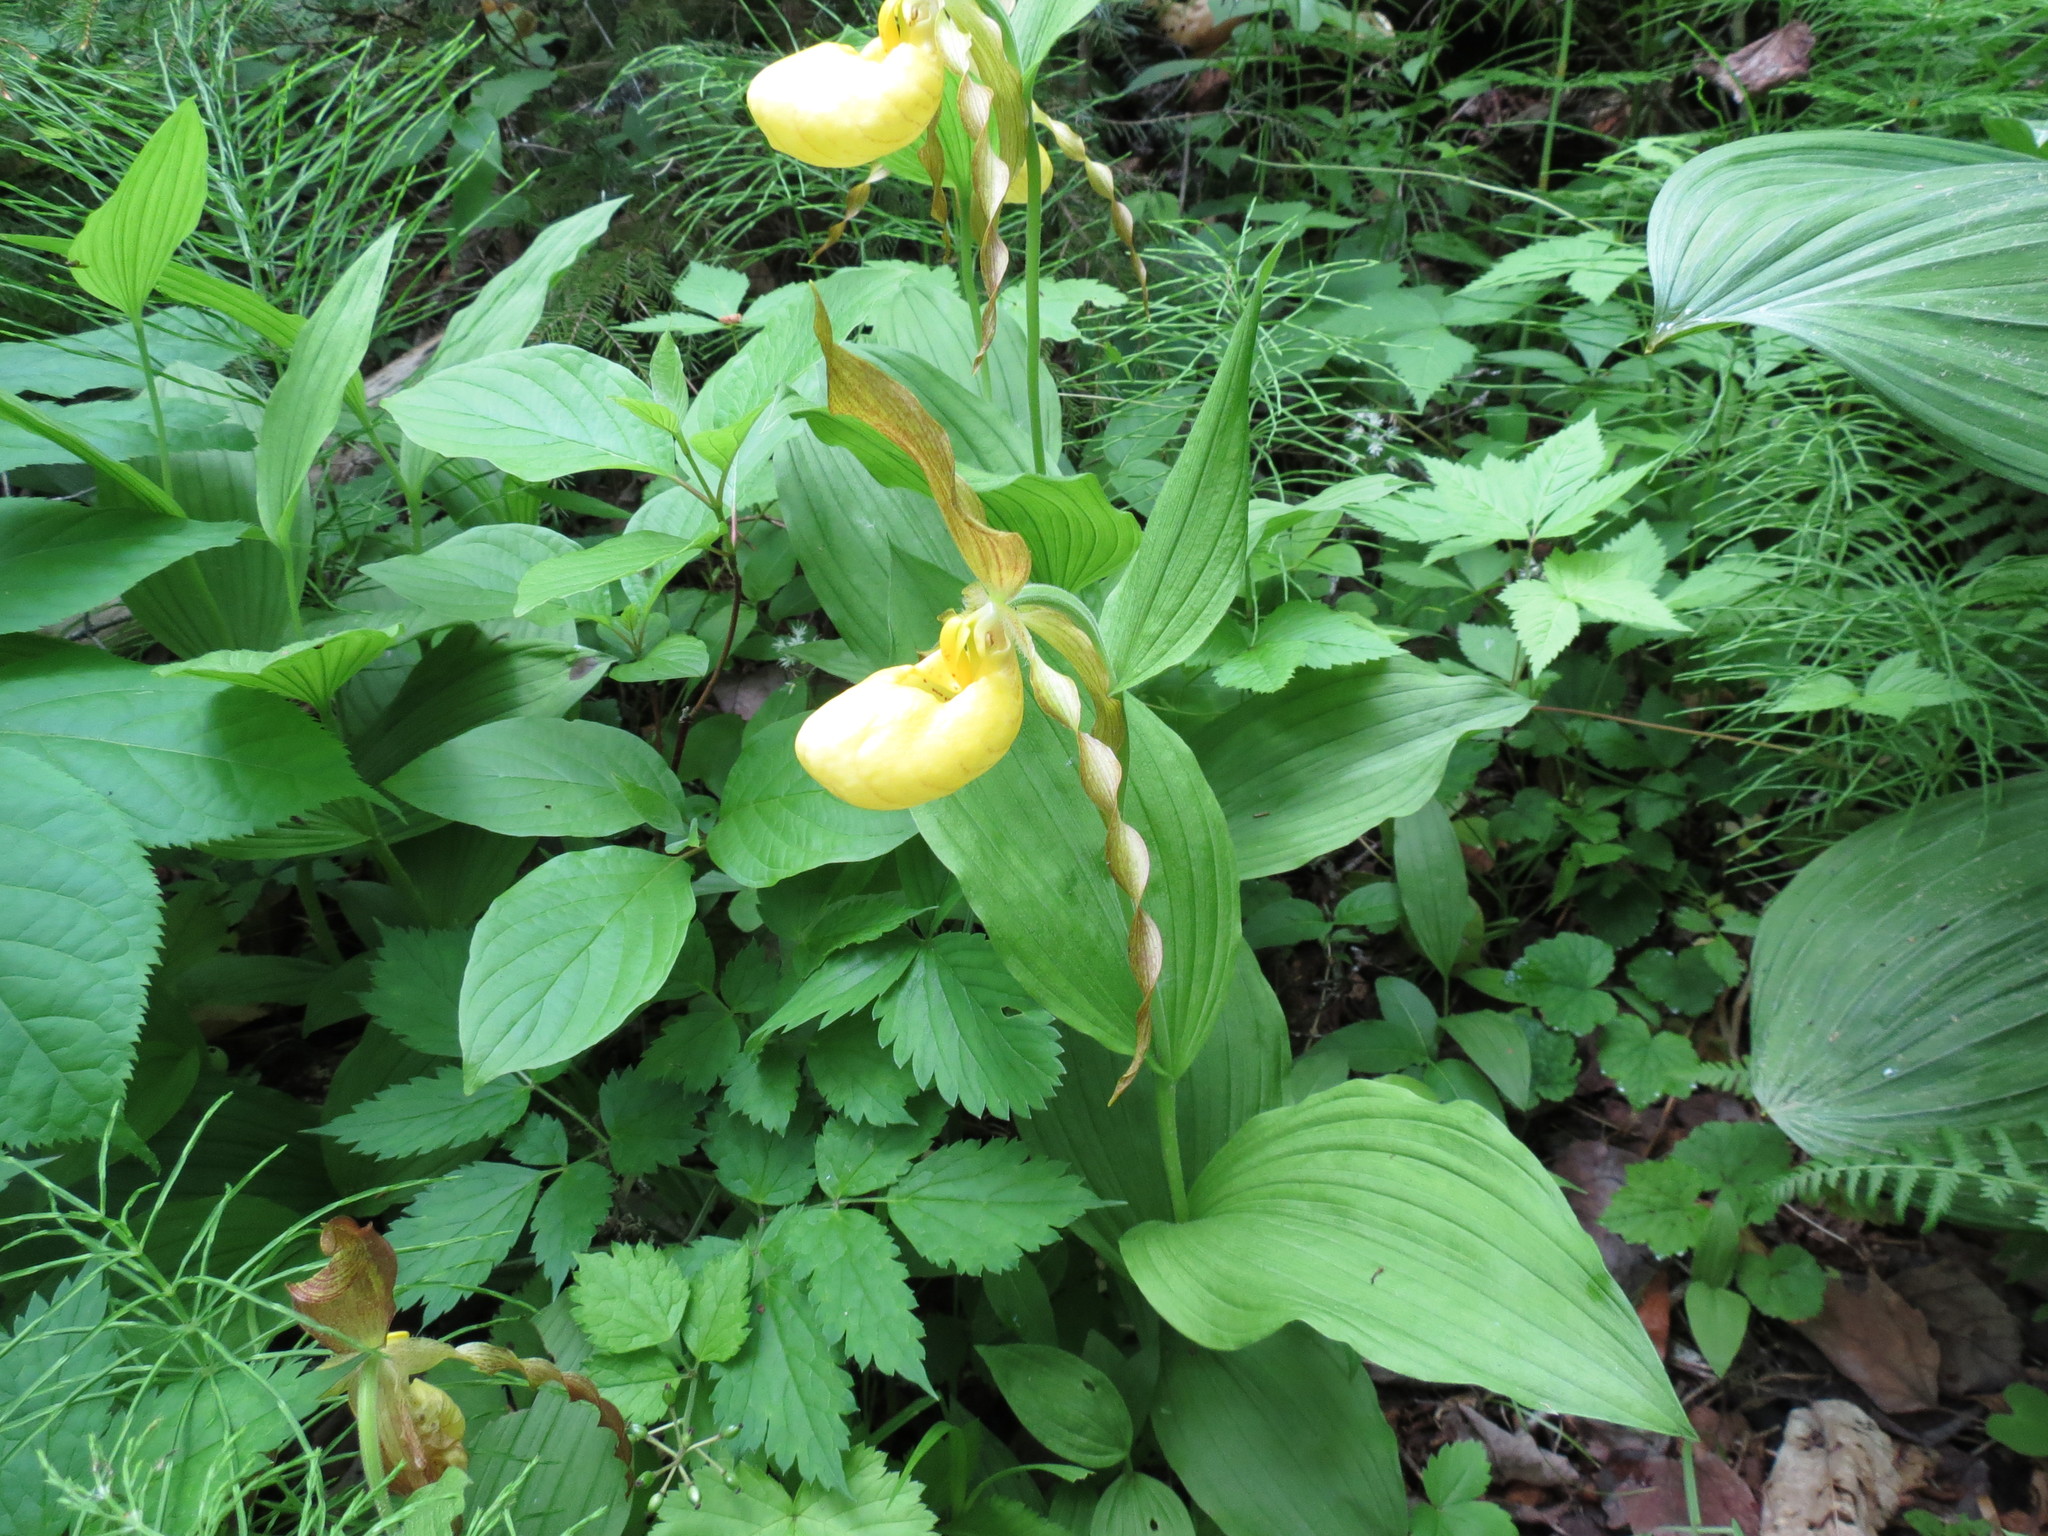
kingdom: Plantae
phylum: Tracheophyta
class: Liliopsida
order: Asparagales
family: Orchidaceae
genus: Cypripedium
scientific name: Cypripedium parviflorum
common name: American yellow lady's-slipper
